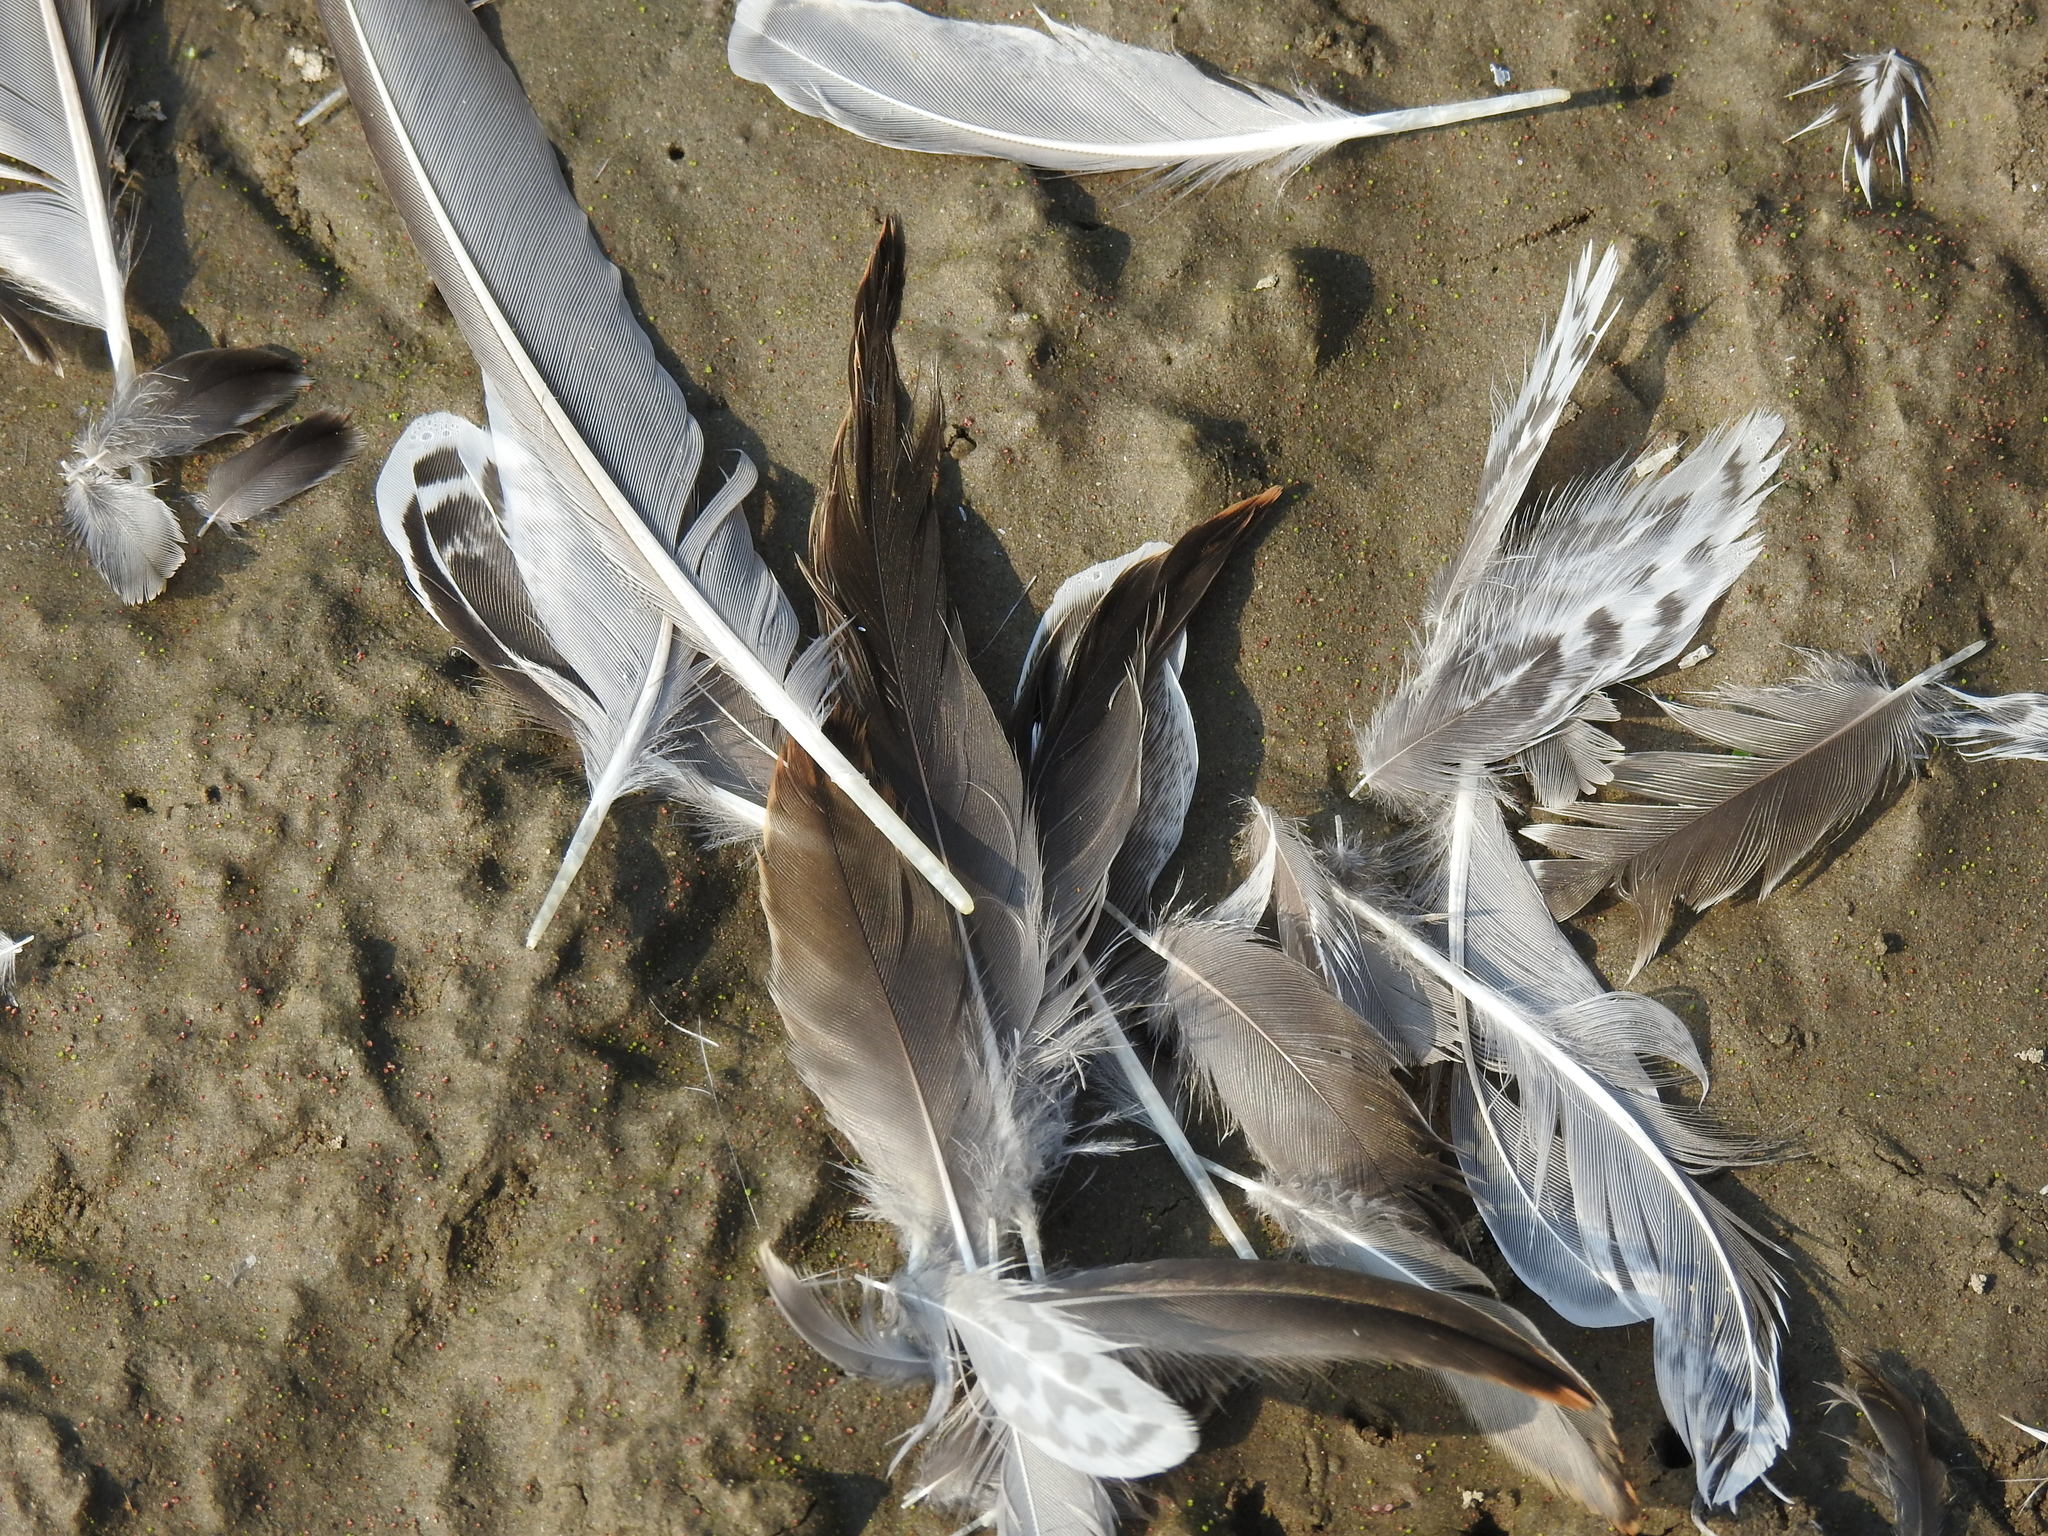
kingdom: Animalia
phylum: Chordata
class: Aves
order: Charadriiformes
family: Scolopacidae
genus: Limnodromus
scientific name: Limnodromus scolopaceus
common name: Long-billed dowitcher
